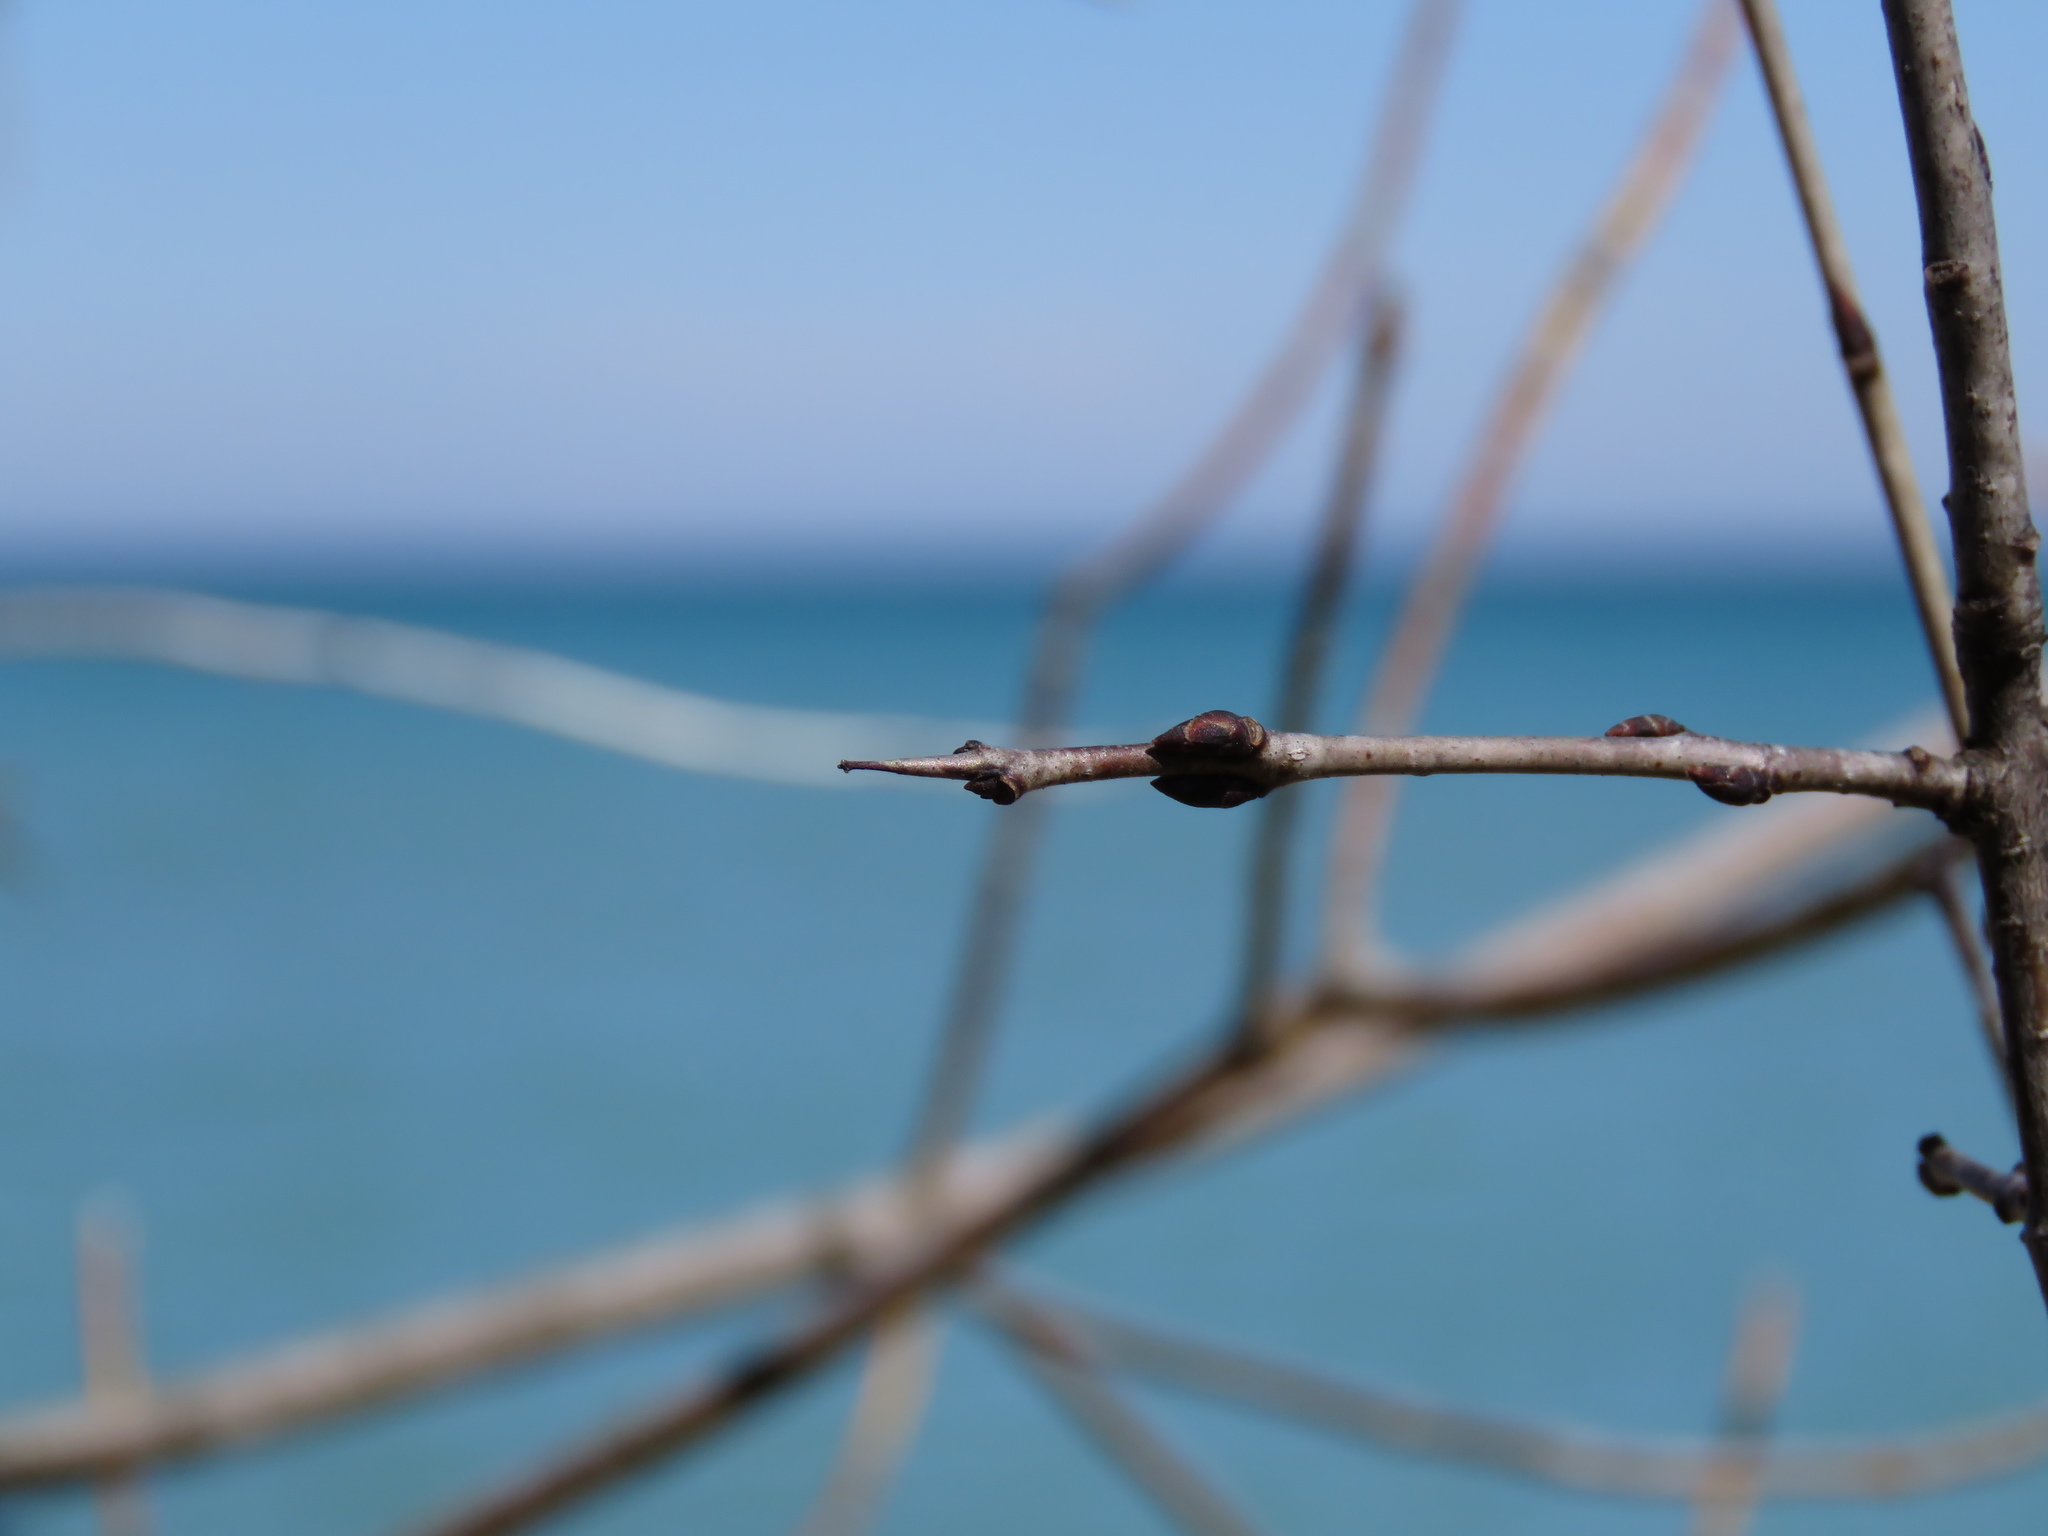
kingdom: Plantae
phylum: Tracheophyta
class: Magnoliopsida
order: Rosales
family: Rhamnaceae
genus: Rhamnus
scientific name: Rhamnus cathartica
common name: Common buckthorn
